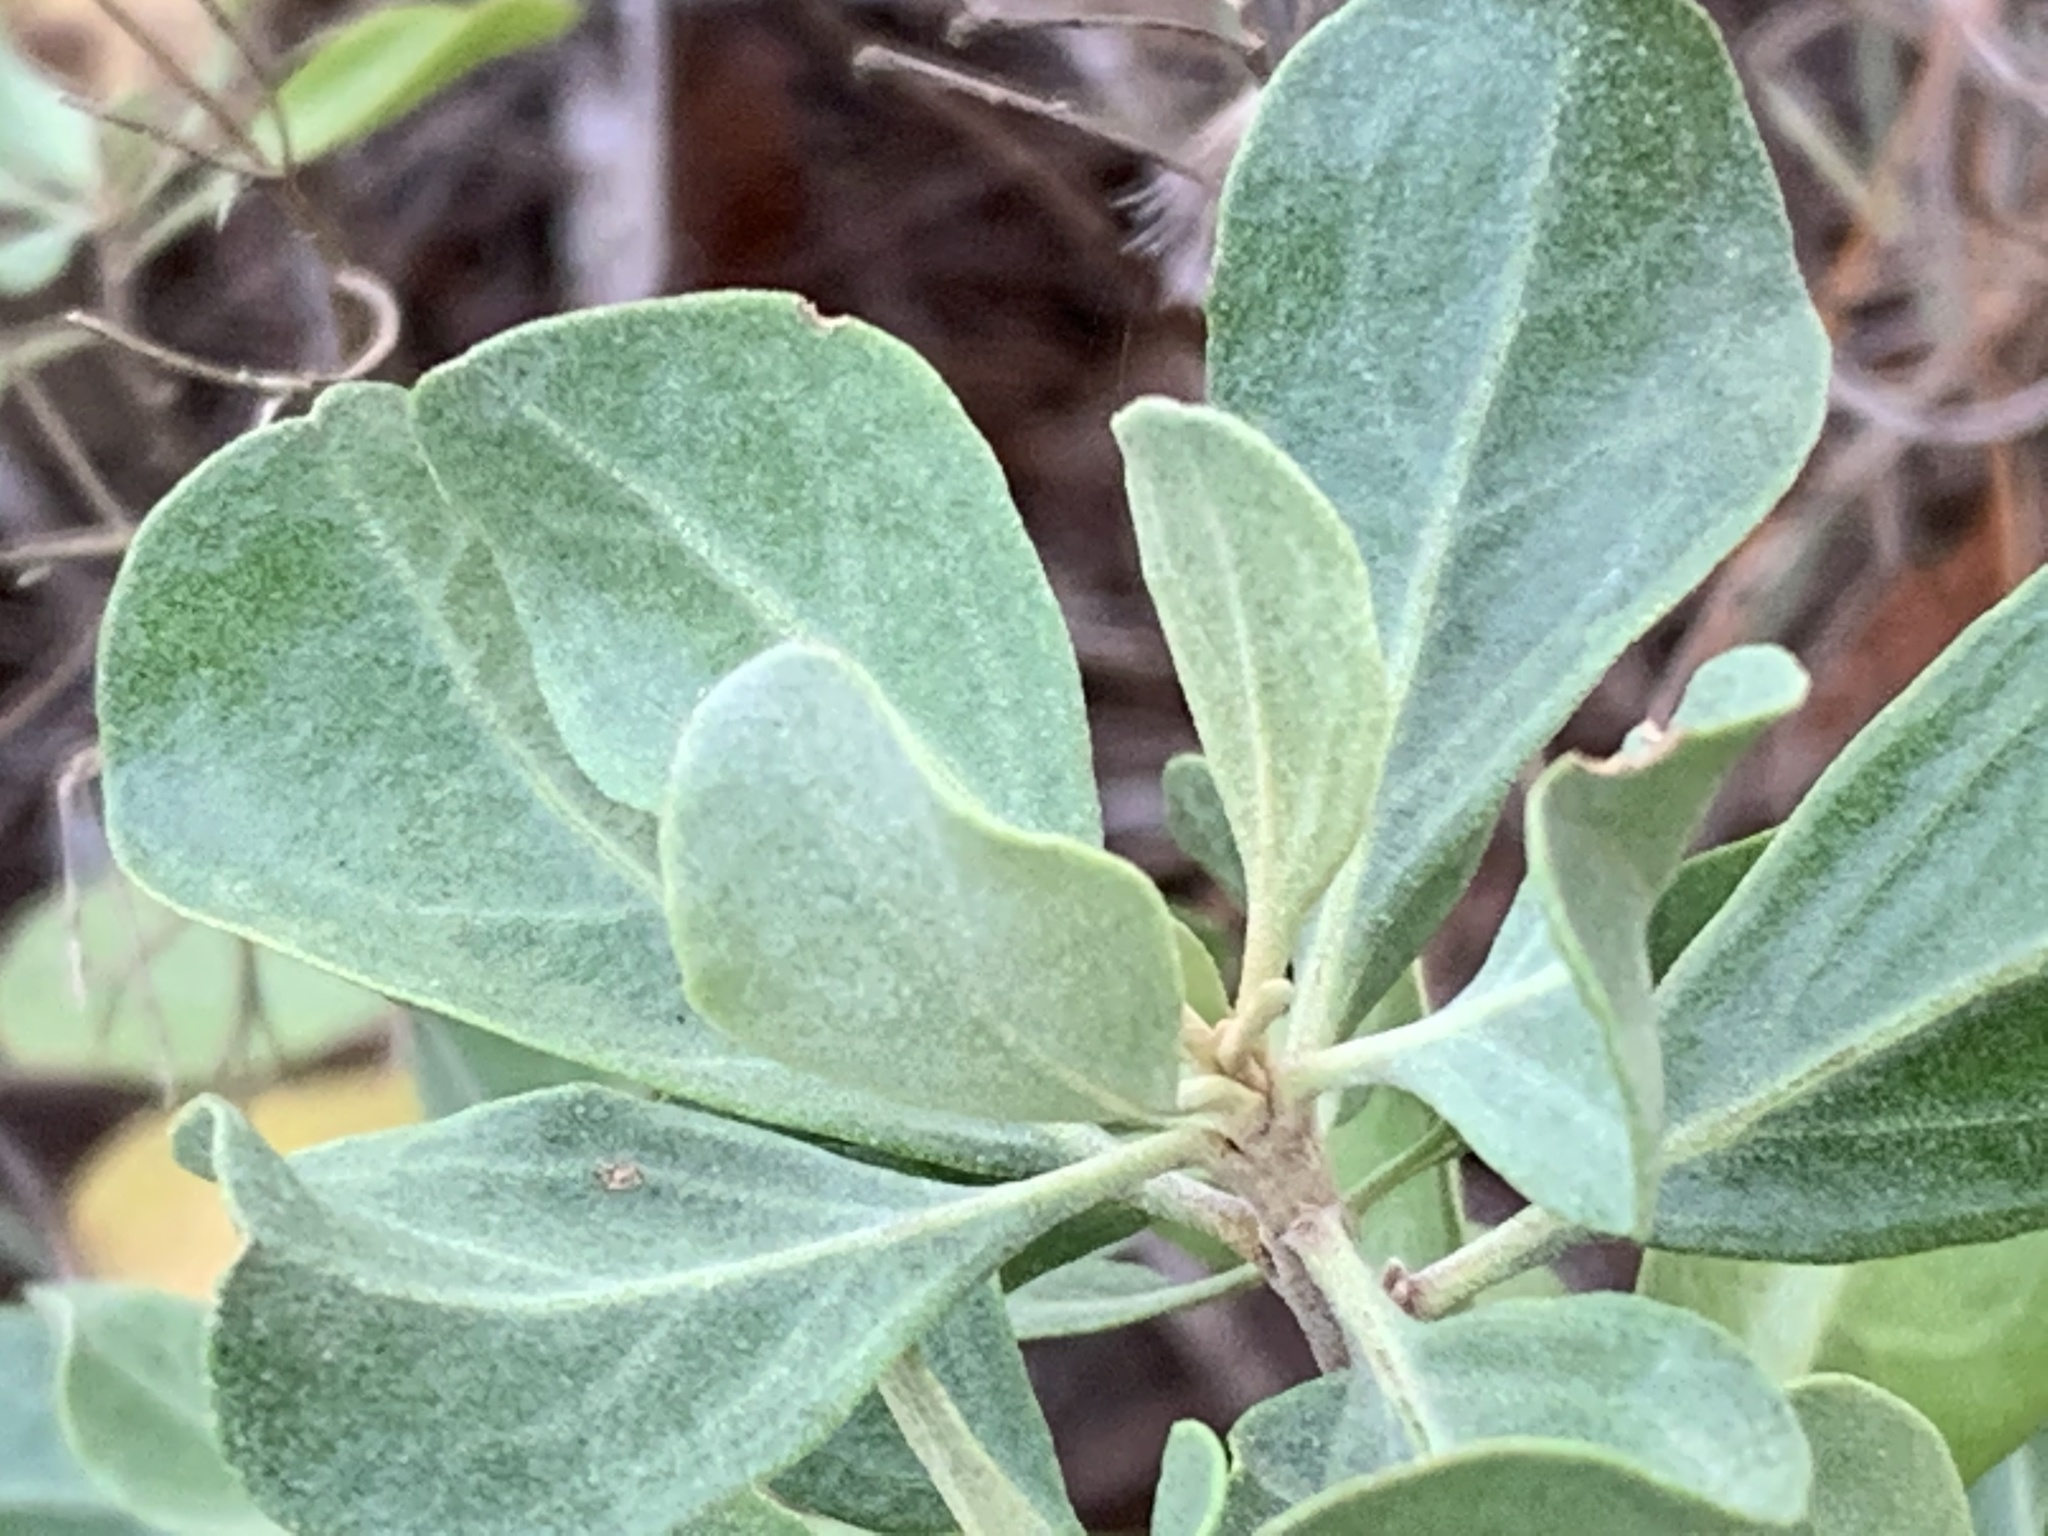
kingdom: Plantae
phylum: Tracheophyta
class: Magnoliopsida
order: Asterales
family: Asteraceae
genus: Garberia
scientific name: Garberia heterophylla
